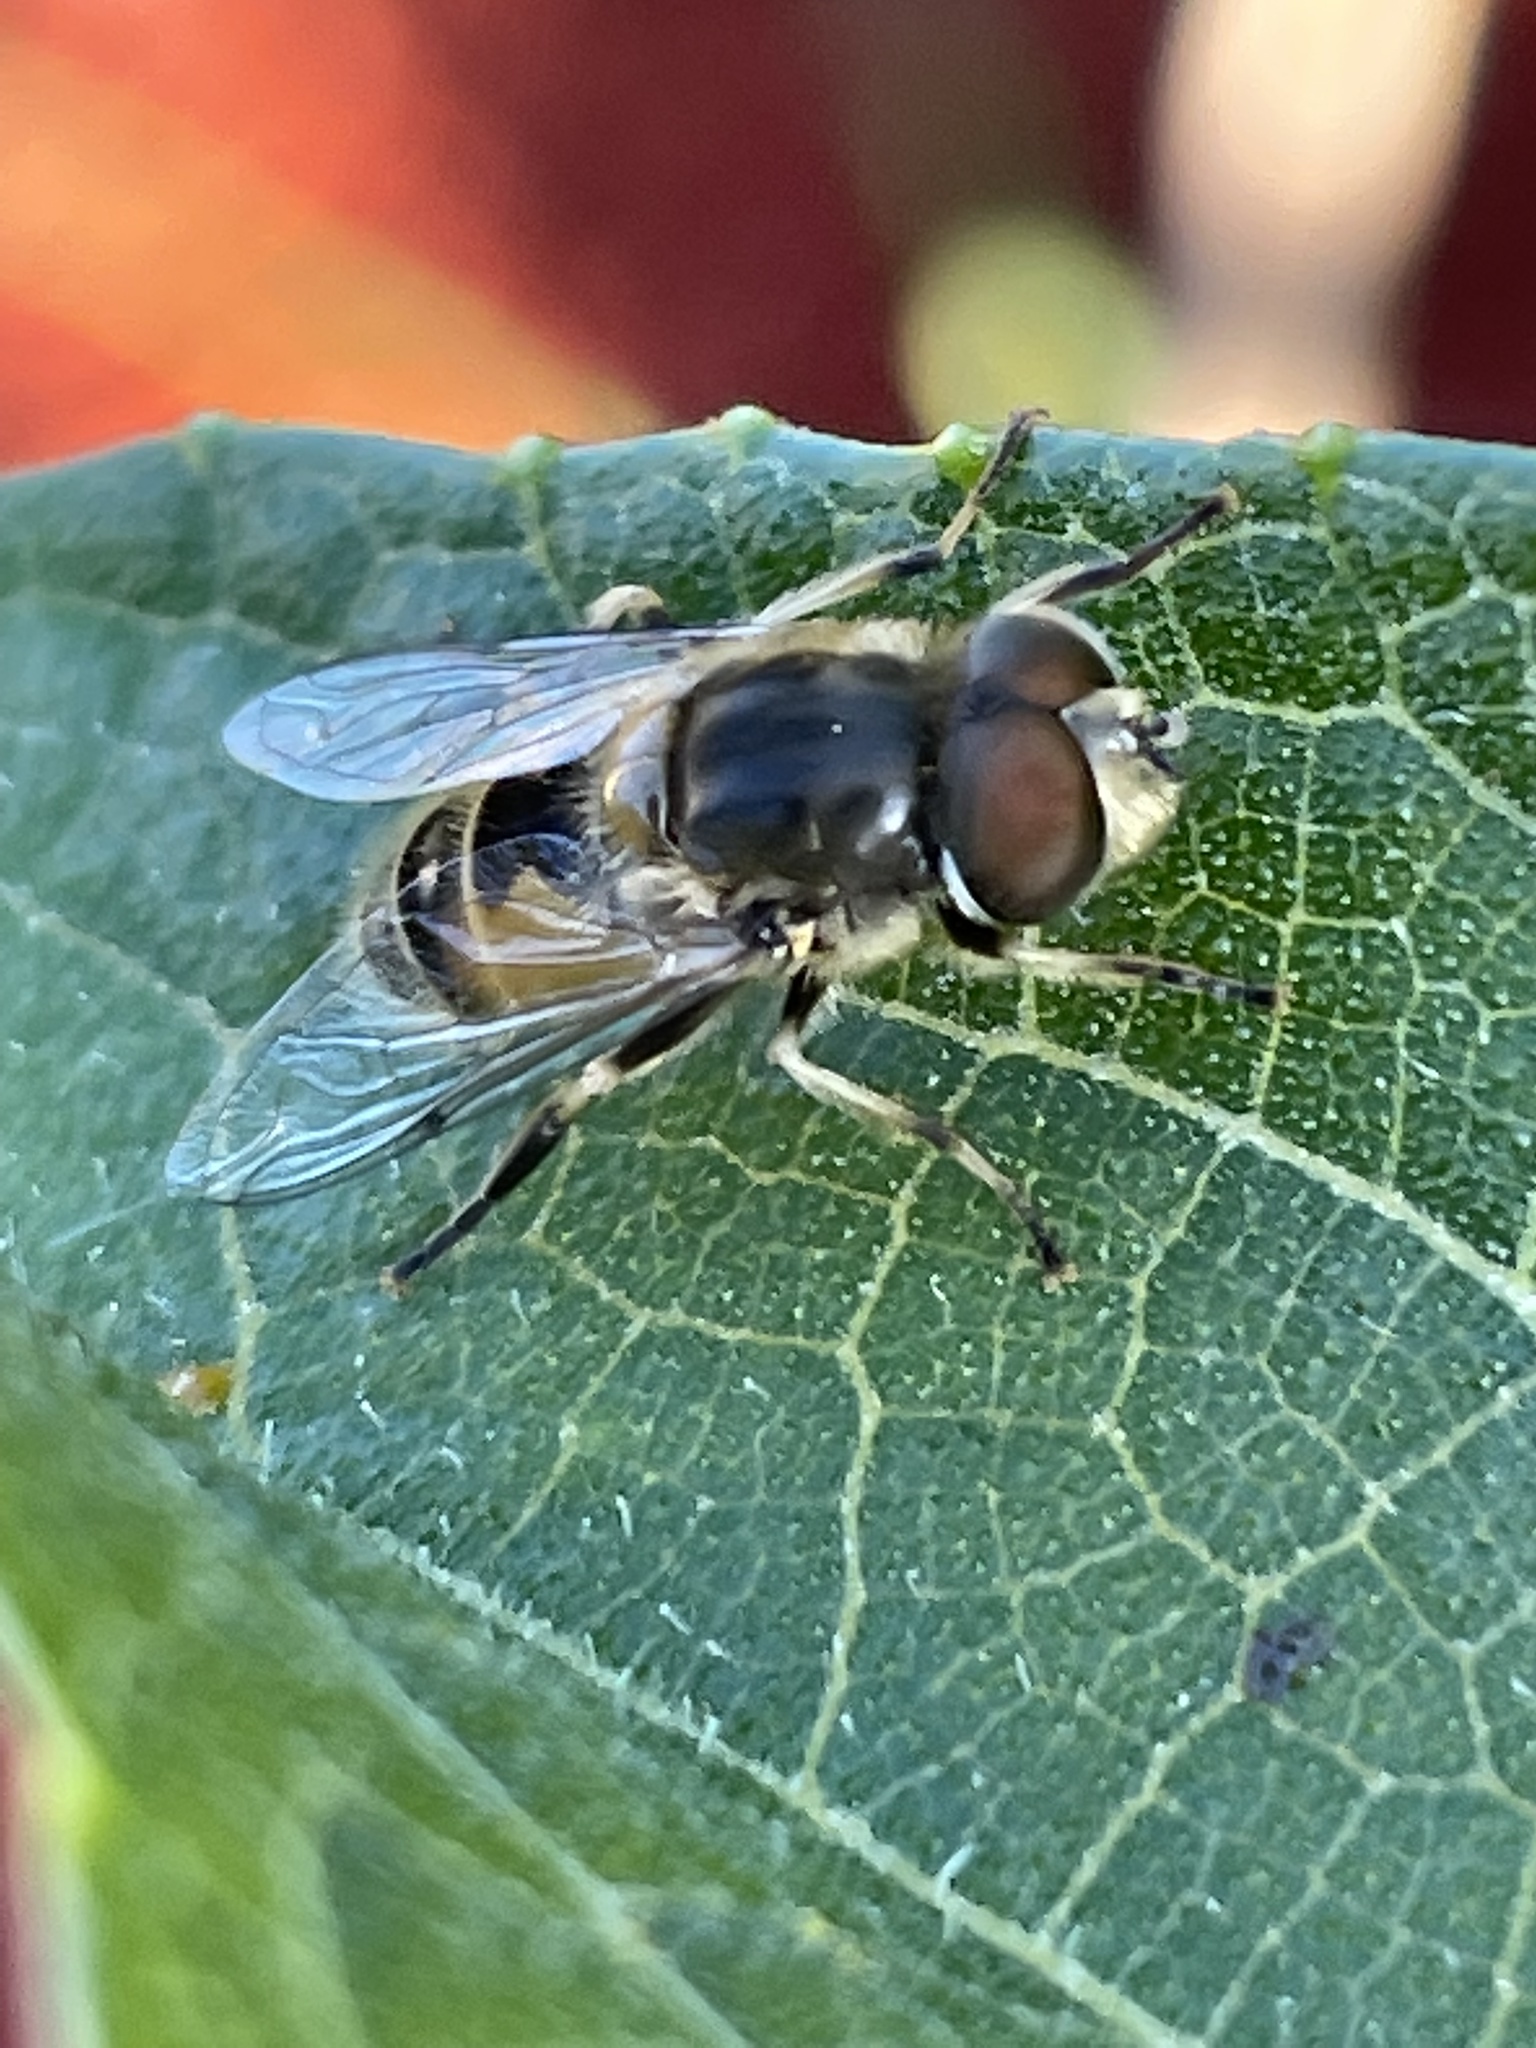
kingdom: Animalia
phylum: Arthropoda
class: Insecta
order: Diptera
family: Syrphidae
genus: Eristalis
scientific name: Eristalis arbustorum
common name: Hover fly
